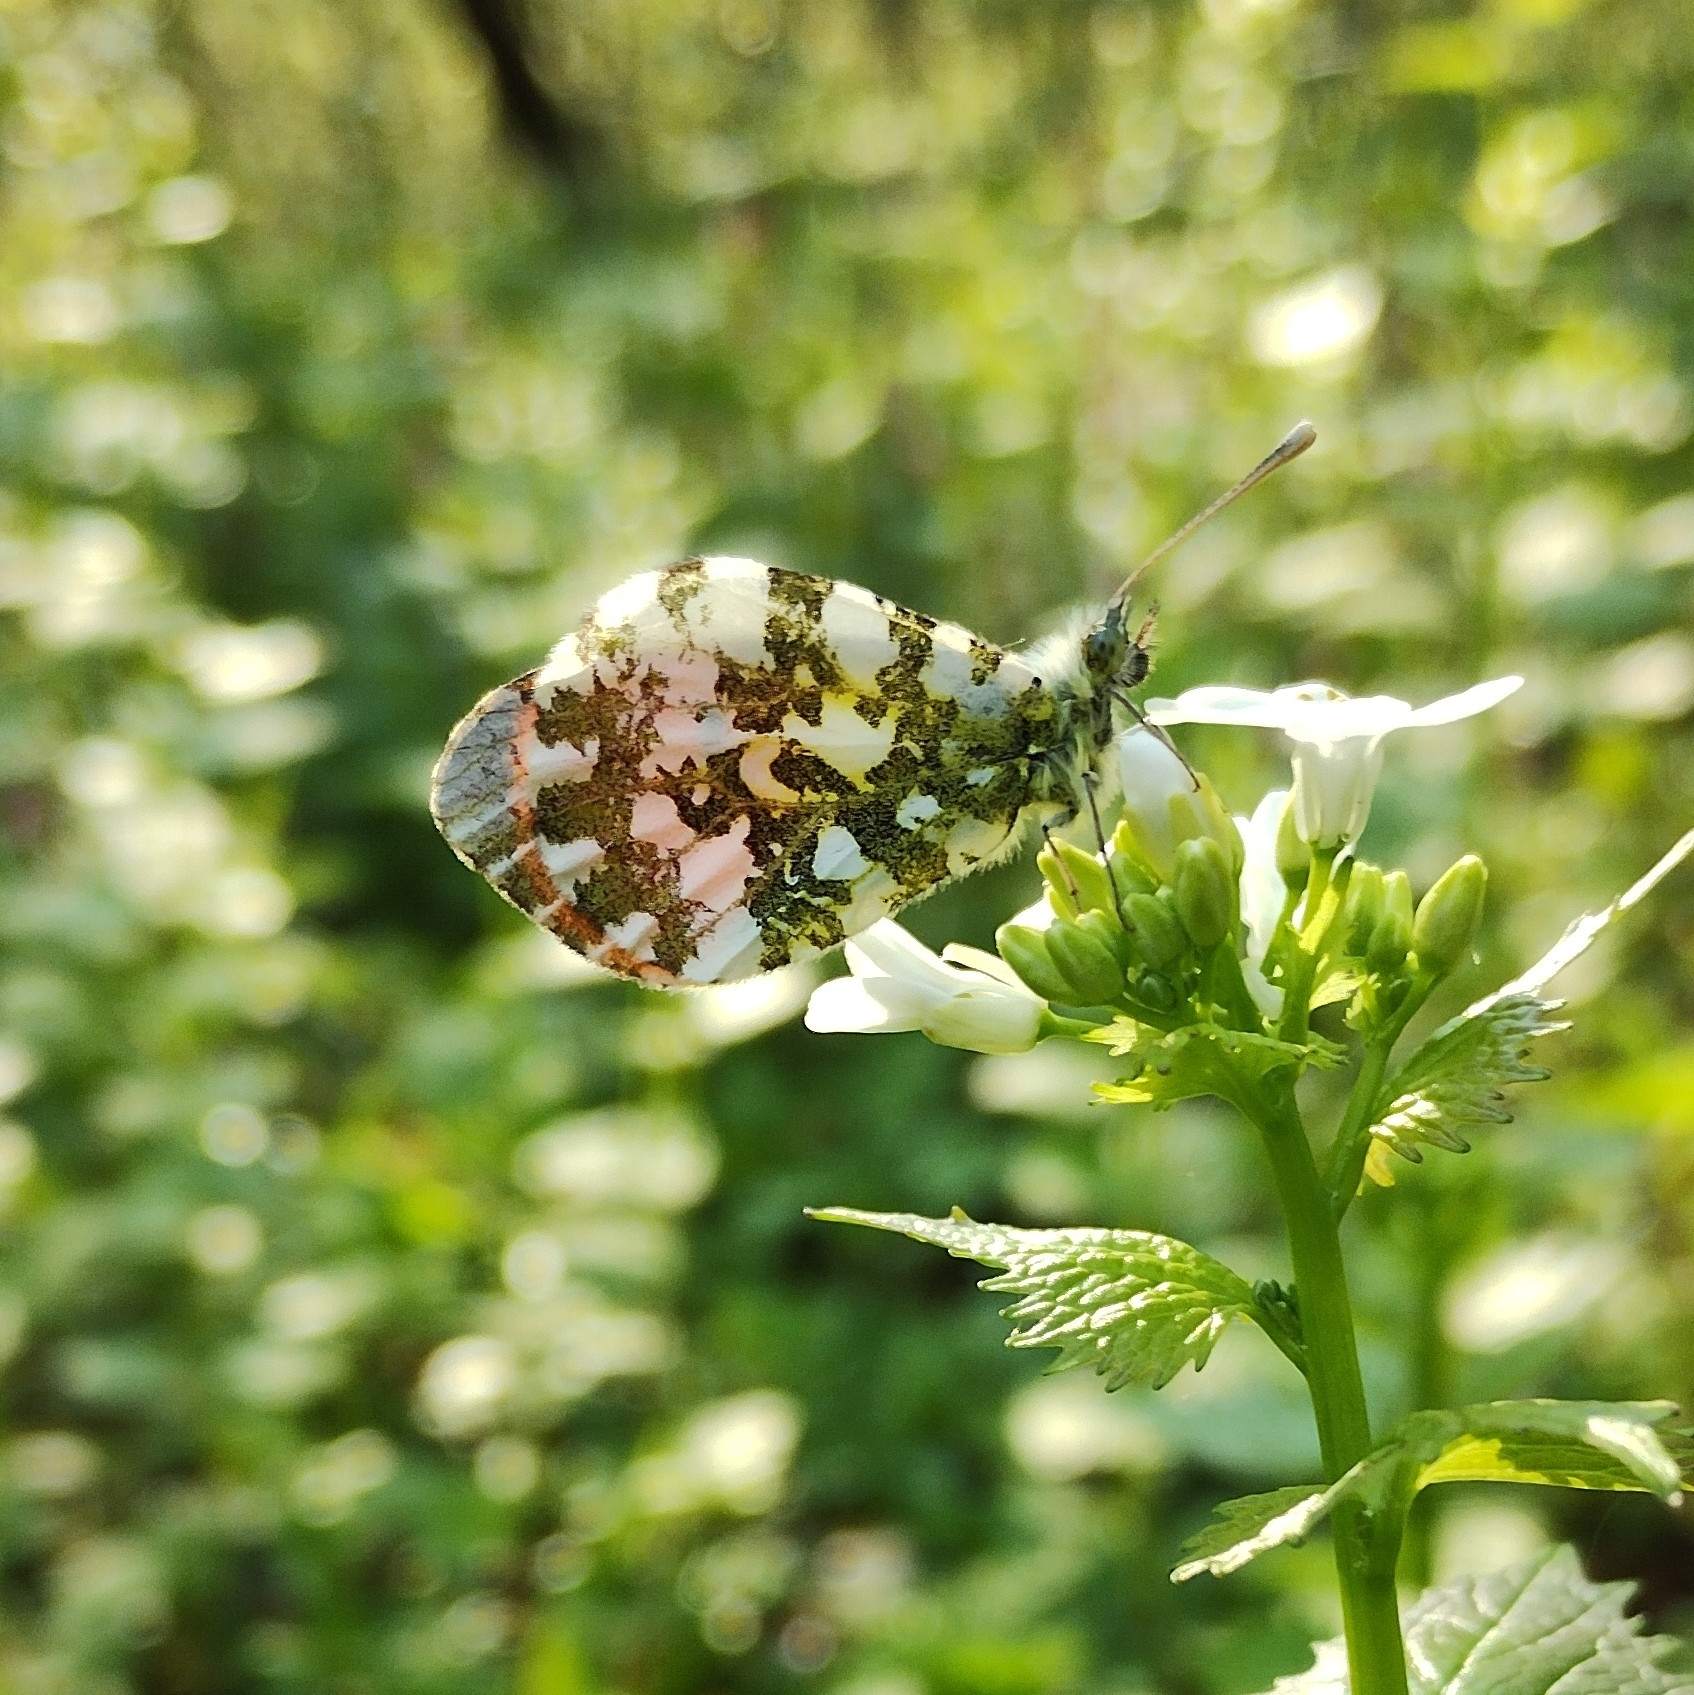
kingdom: Animalia
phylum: Arthropoda
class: Insecta
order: Lepidoptera
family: Pieridae
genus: Anthocharis
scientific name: Anthocharis cardamines
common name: Orange-tip
